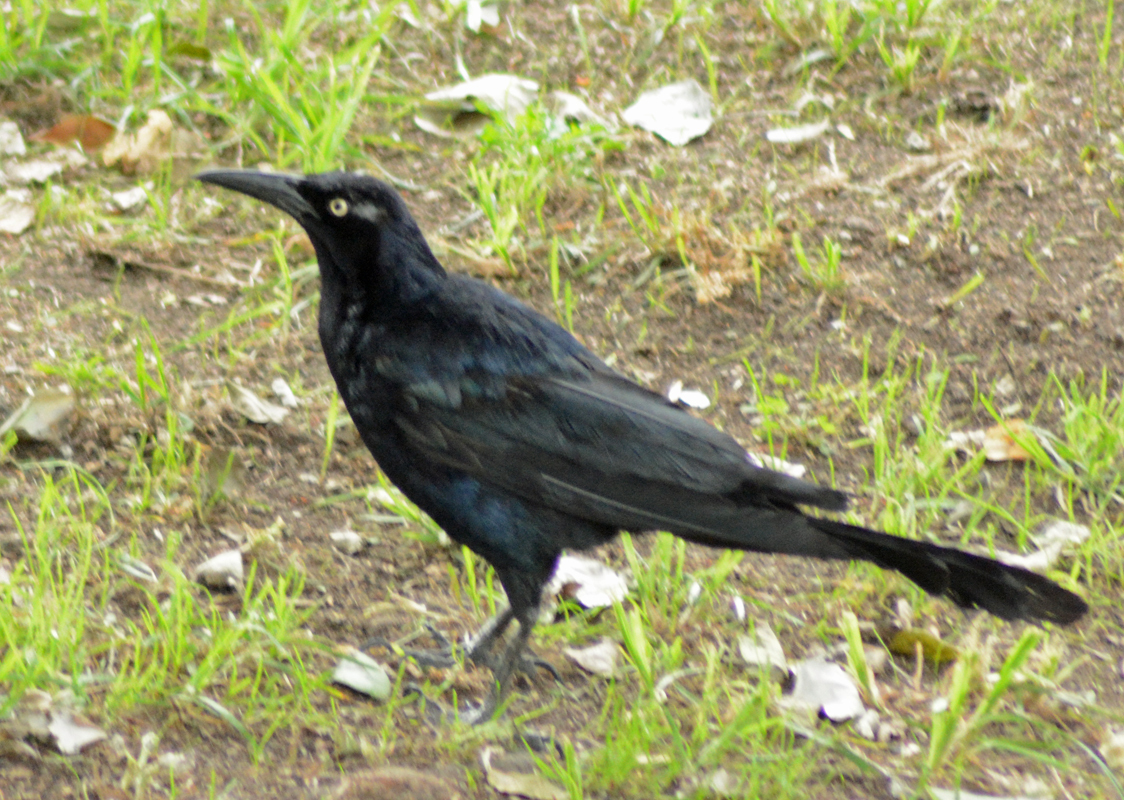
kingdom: Animalia
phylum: Chordata
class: Aves
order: Passeriformes
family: Icteridae
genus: Quiscalus
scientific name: Quiscalus mexicanus
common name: Great-tailed grackle
